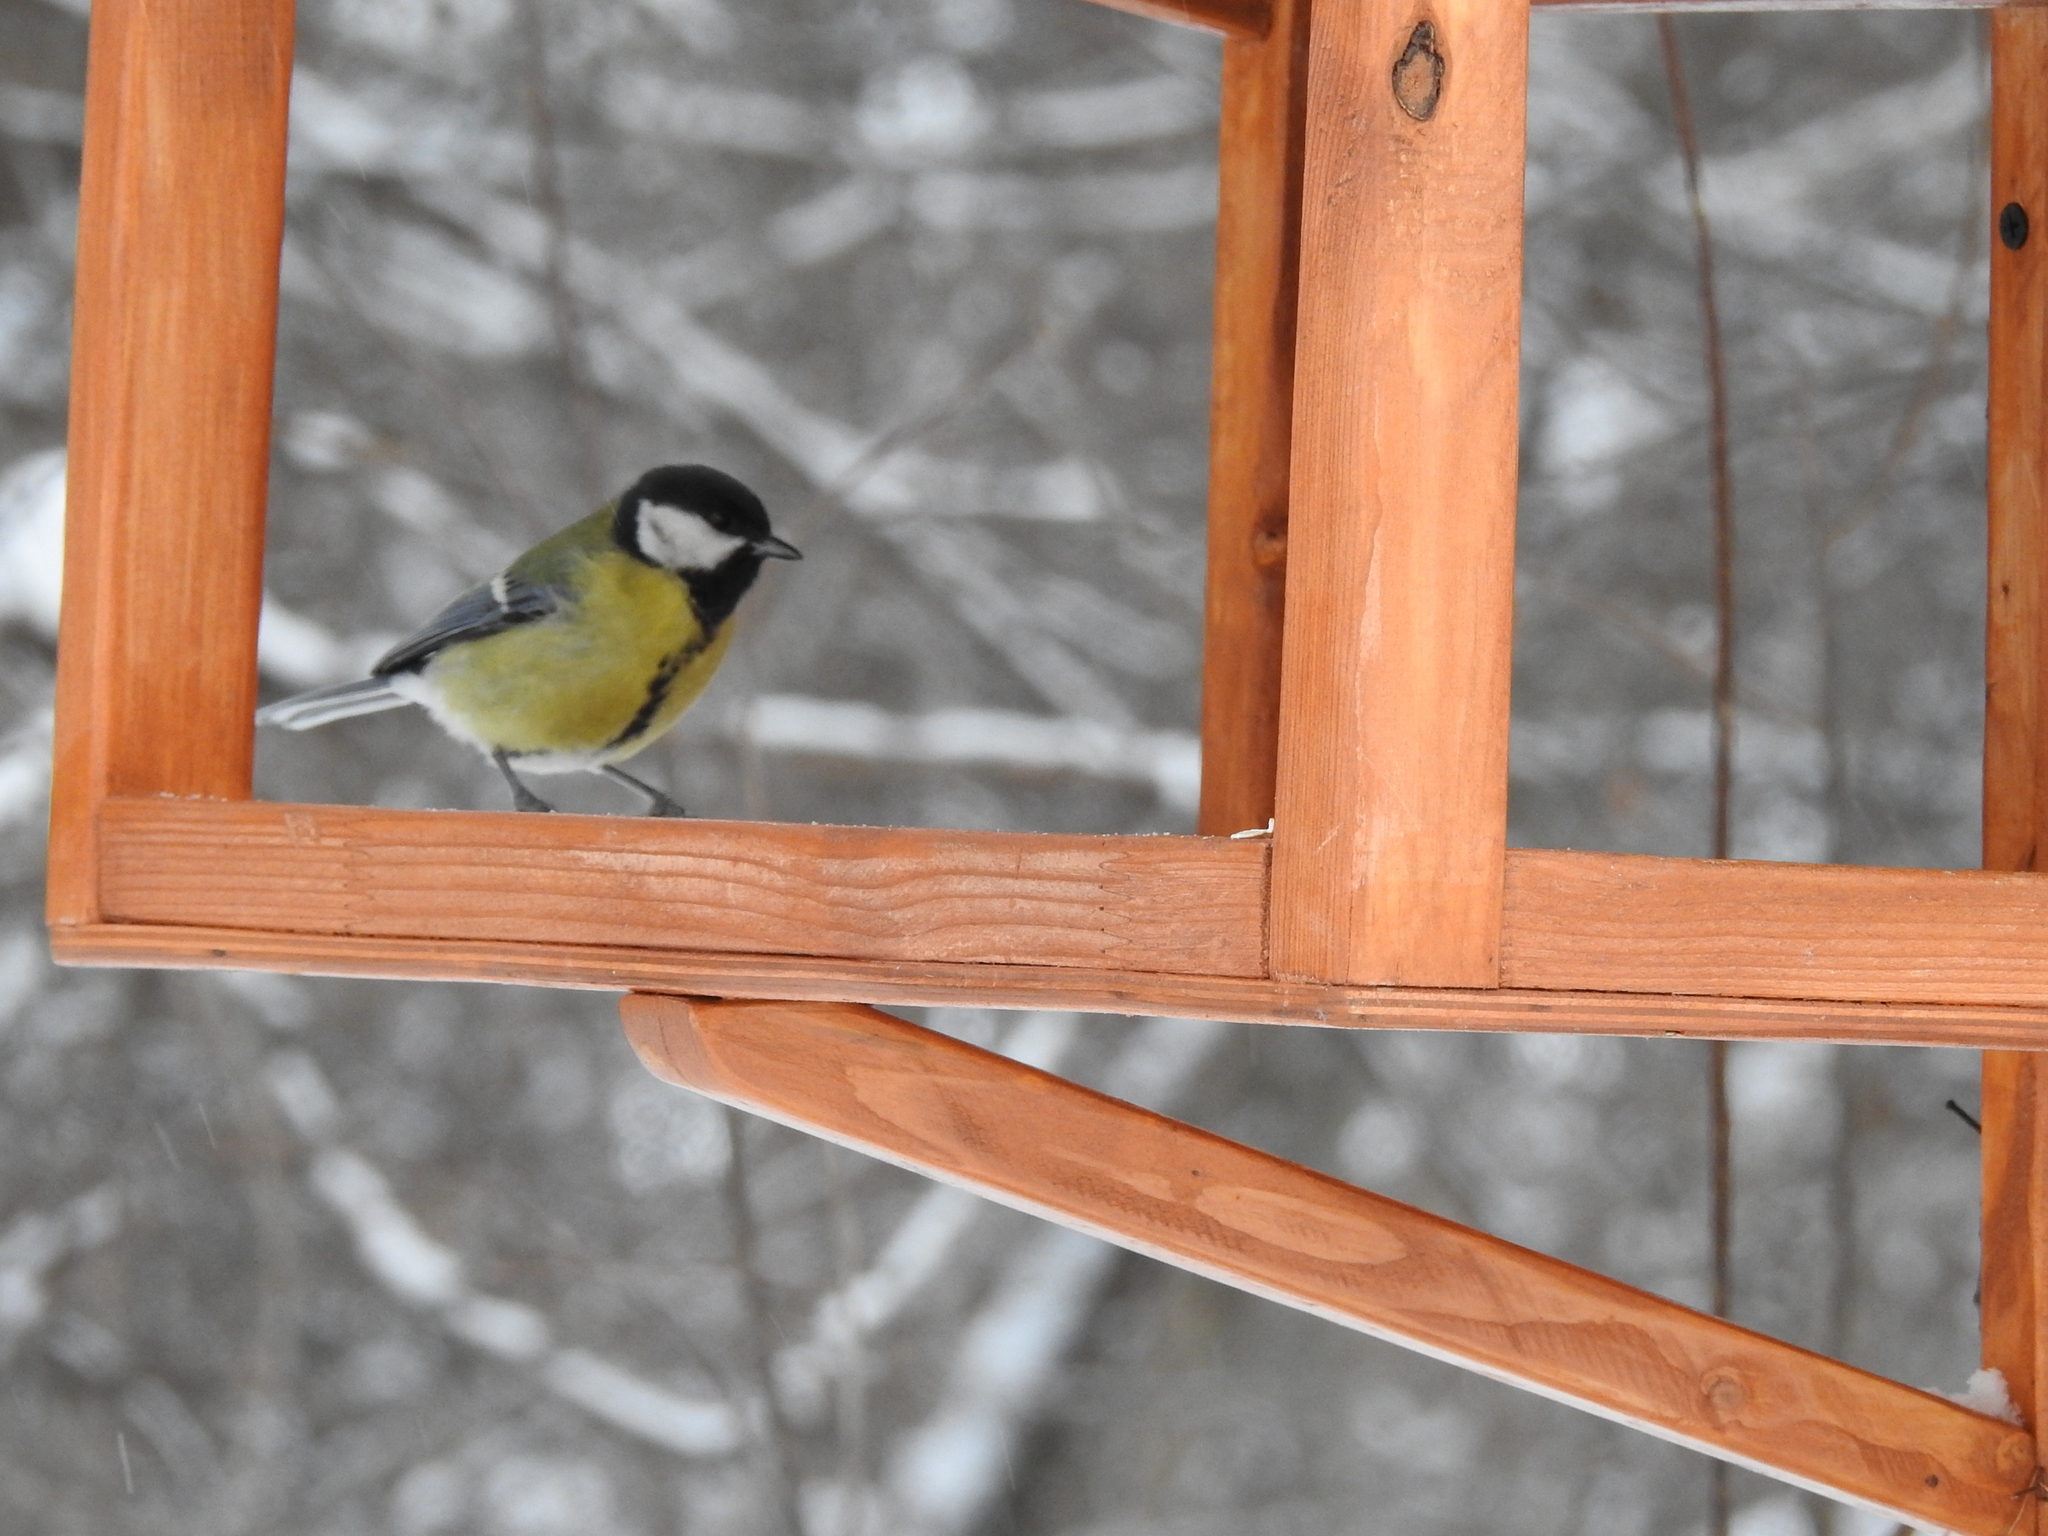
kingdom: Animalia
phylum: Chordata
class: Aves
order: Passeriformes
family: Paridae
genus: Parus
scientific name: Parus major
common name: Great tit
